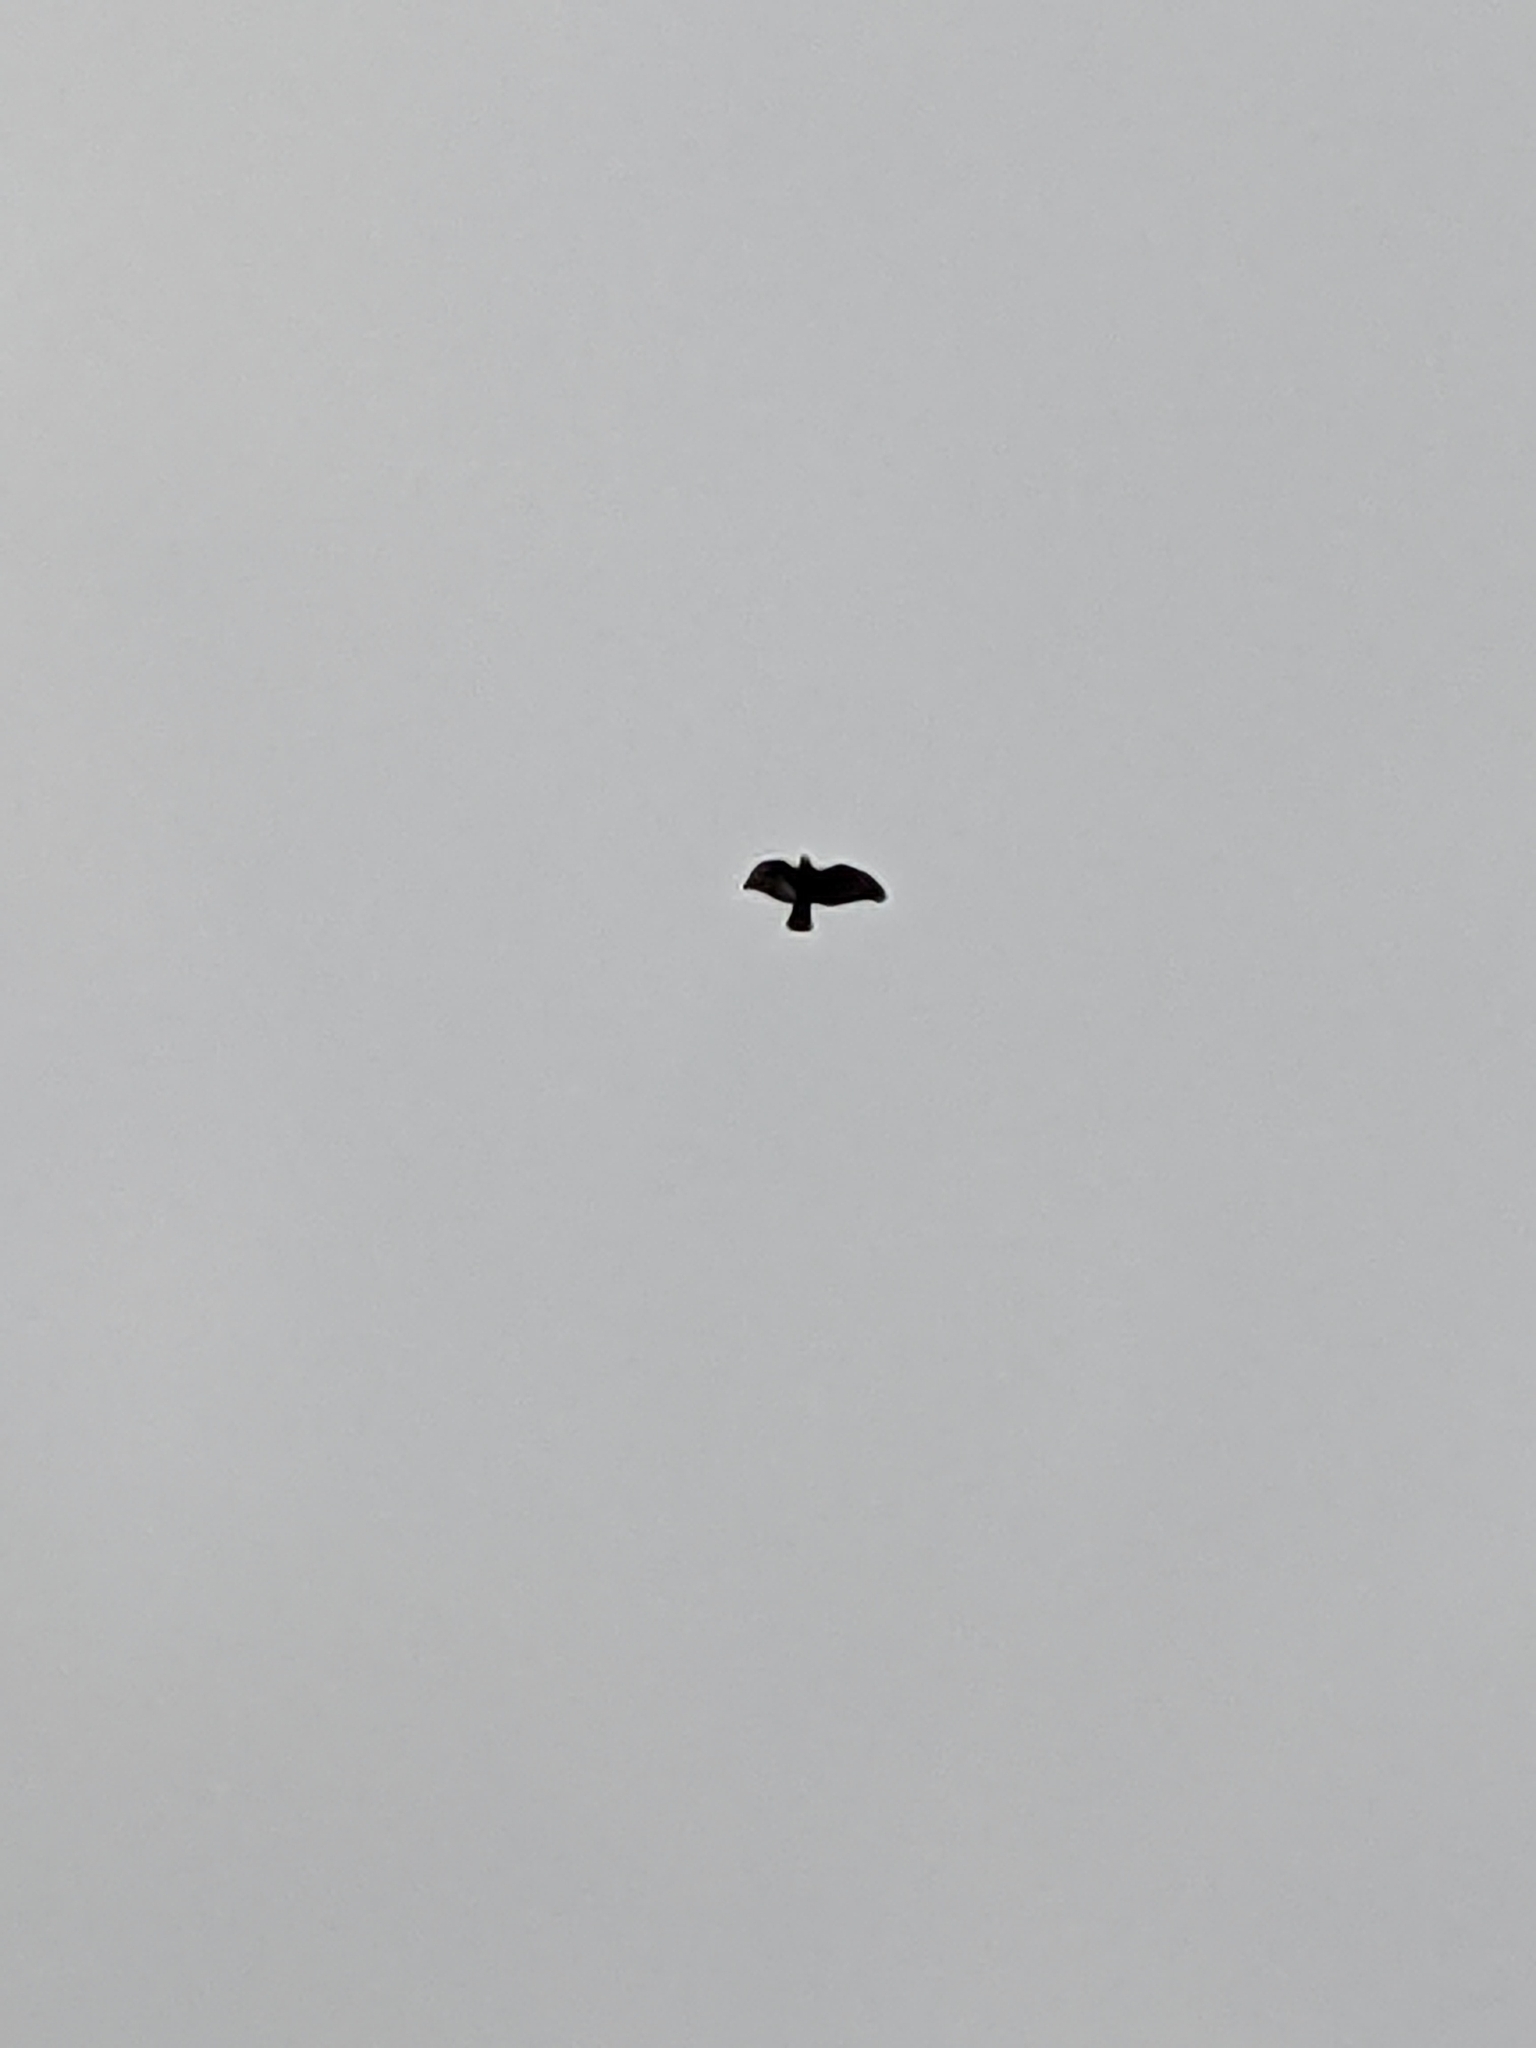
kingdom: Animalia
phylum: Chordata
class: Aves
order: Accipitriformes
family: Accipitridae
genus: Buteo
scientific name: Buteo lagopus
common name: Rough-legged buzzard
